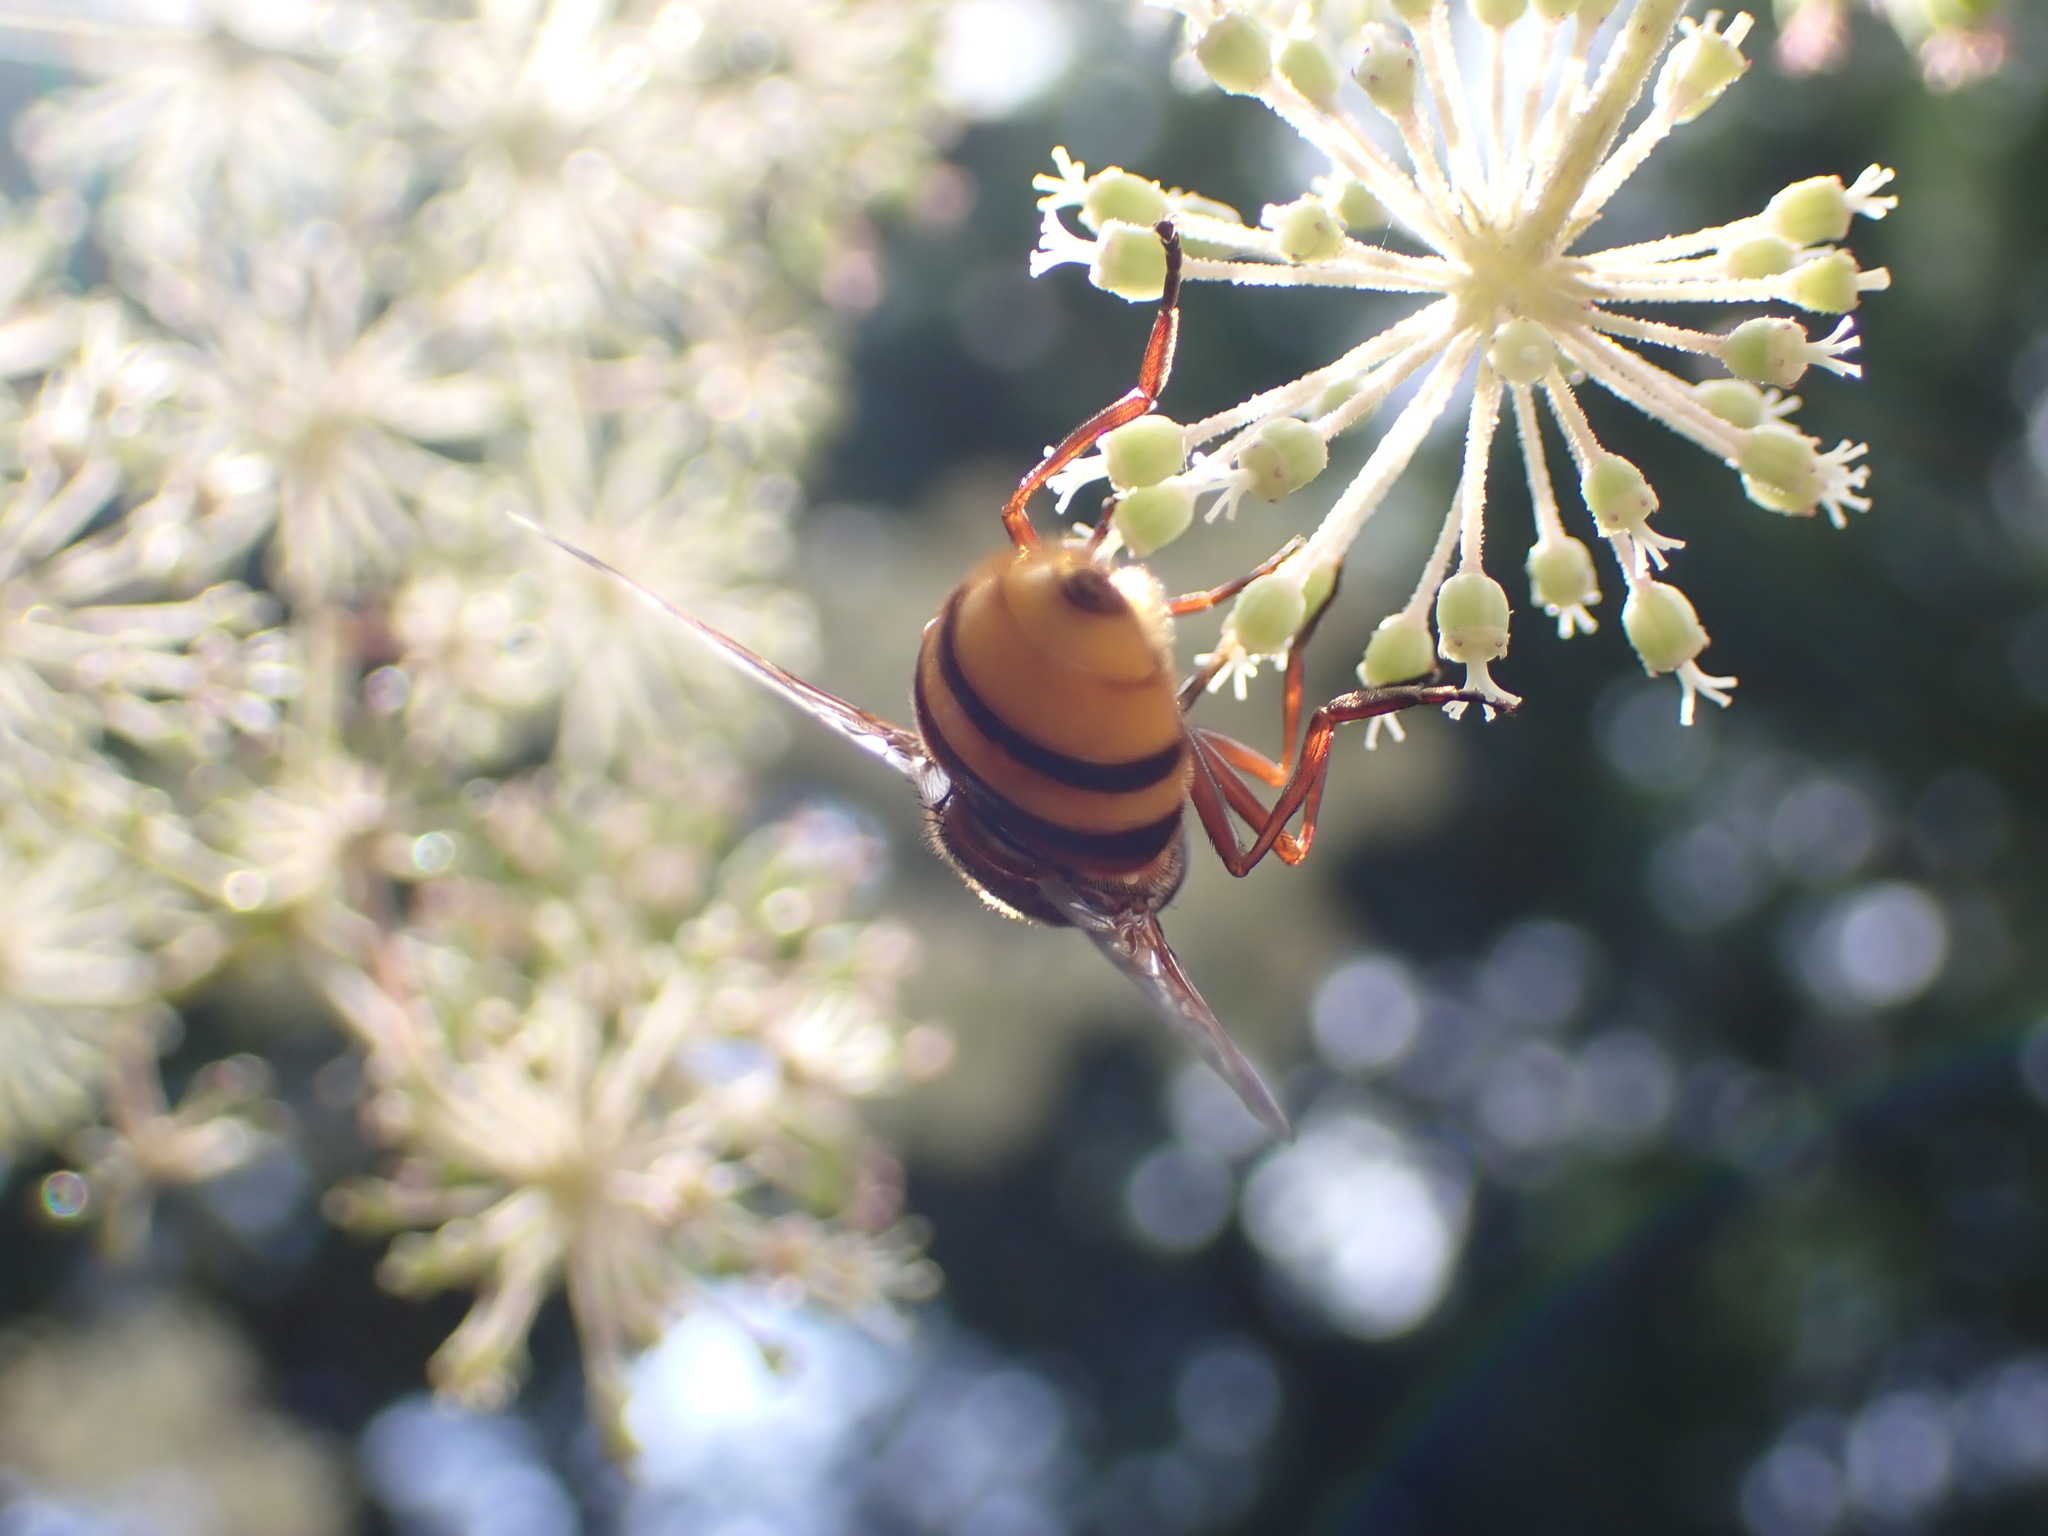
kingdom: Animalia
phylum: Arthropoda
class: Insecta
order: Diptera
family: Syrphidae
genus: Volucella
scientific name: Volucella zonaria
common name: Hornet hoverfly
